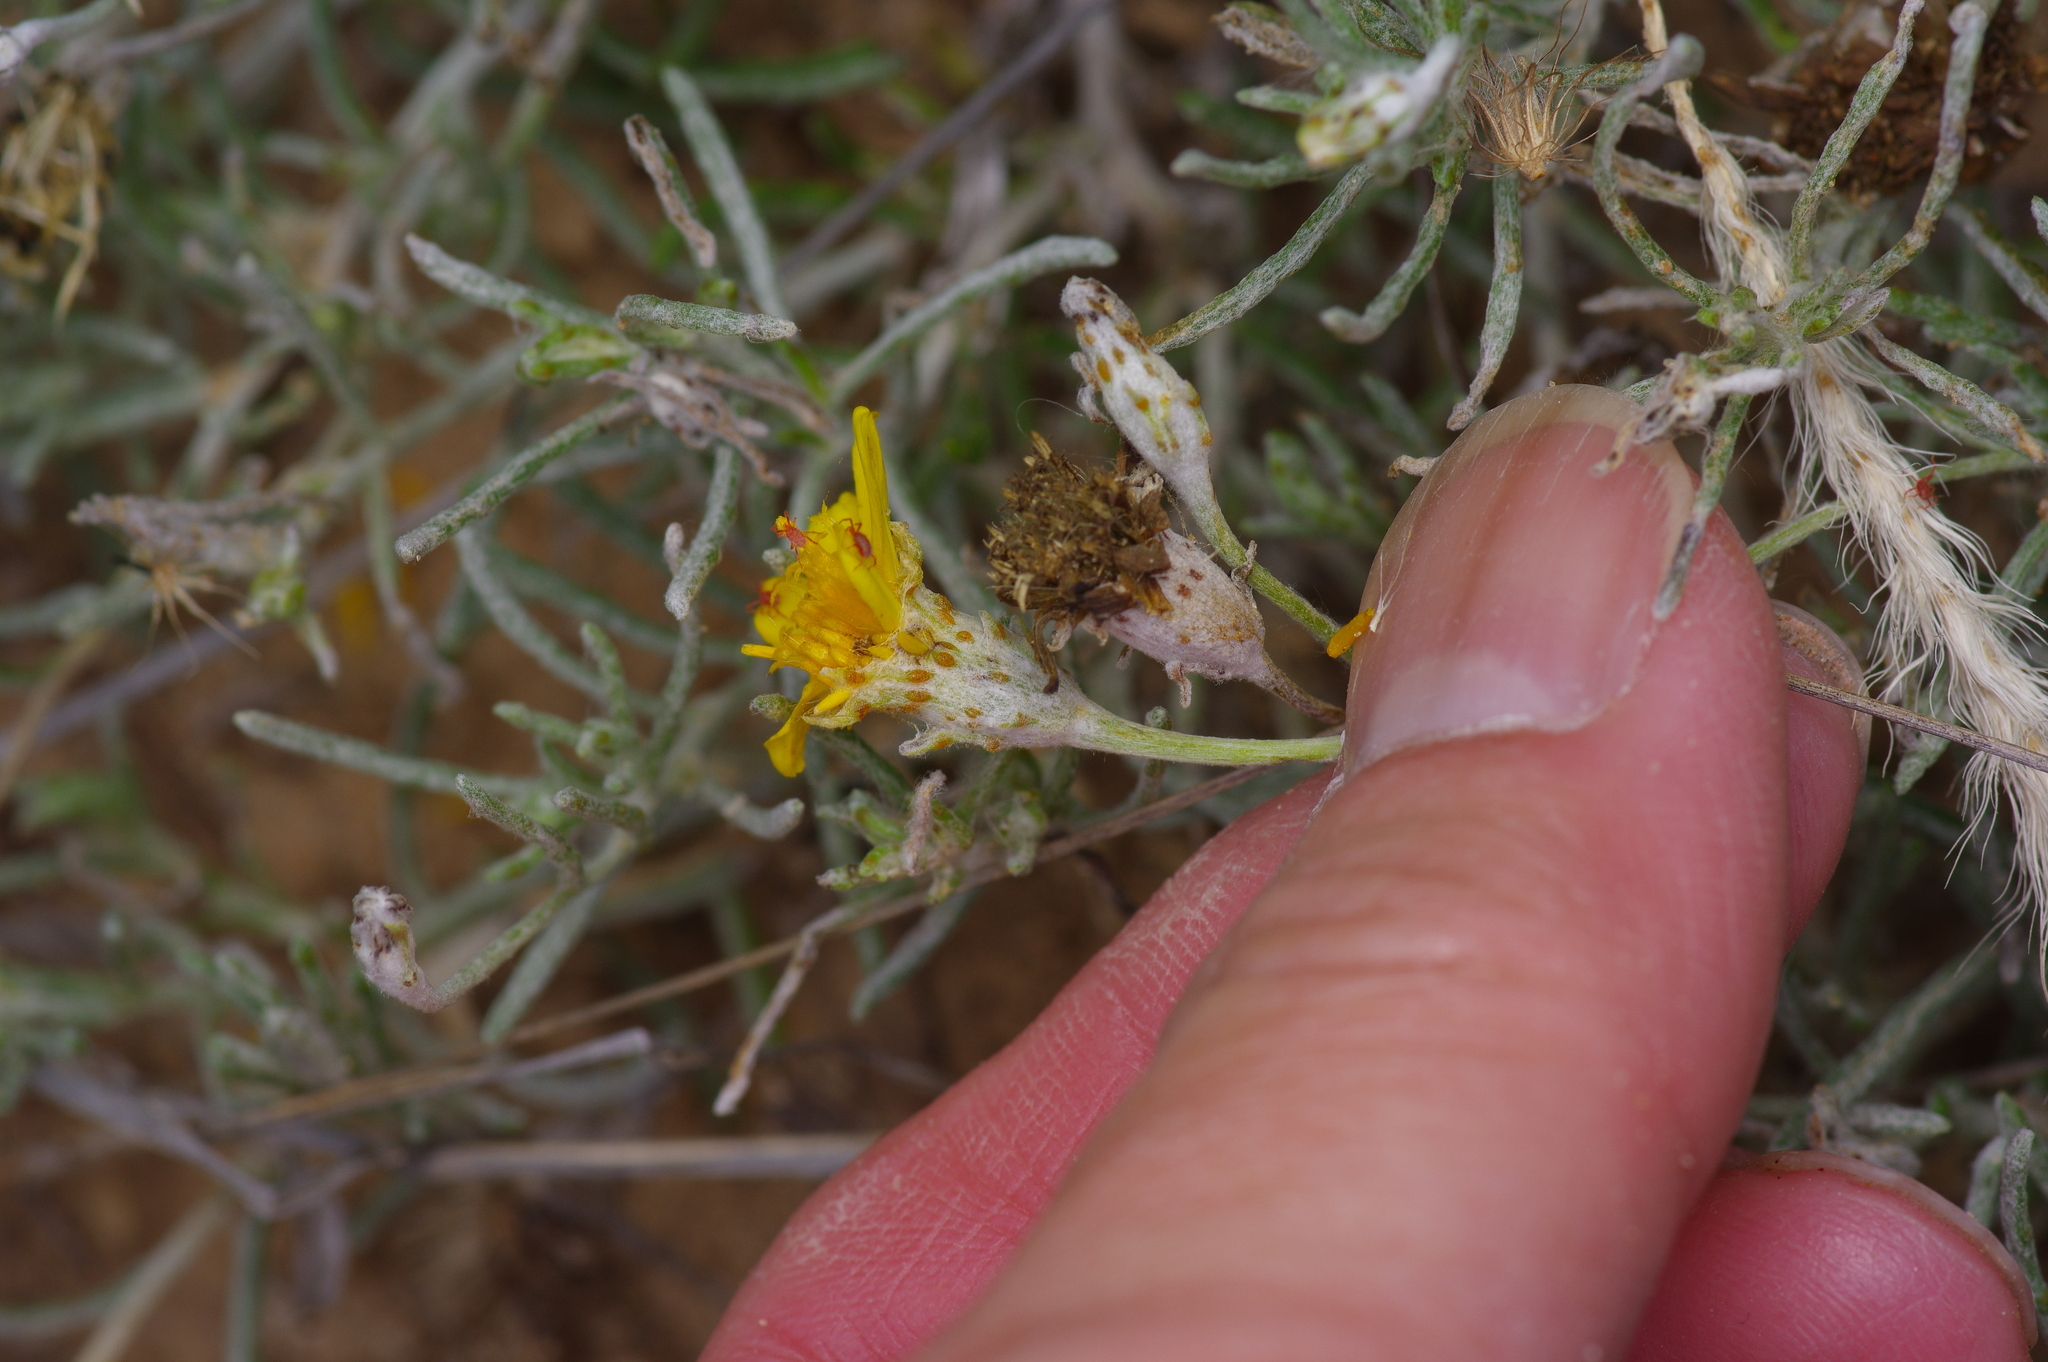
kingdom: Plantae
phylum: Tracheophyta
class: Magnoliopsida
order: Asterales
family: Asteraceae
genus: Thymophylla
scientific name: Thymophylla tephroleuca
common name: Ashy dogweed
